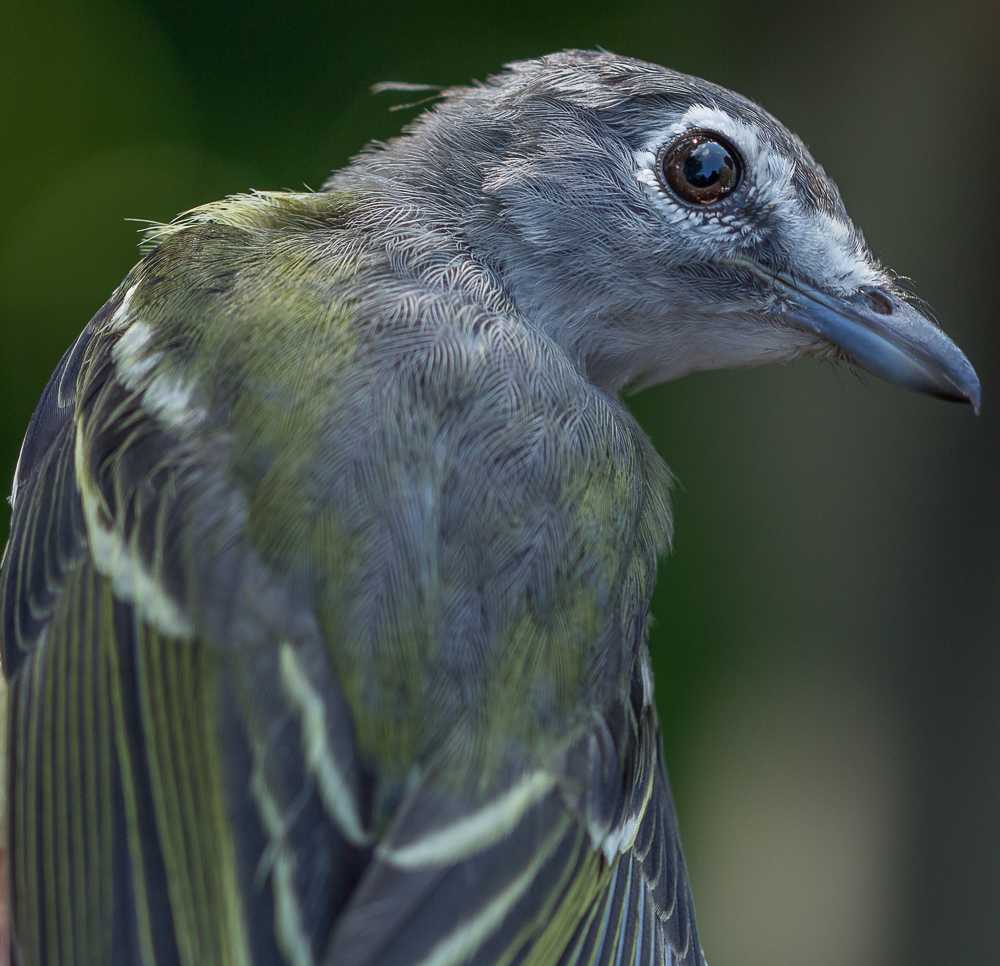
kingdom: Animalia
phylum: Chordata
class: Aves
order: Passeriformes
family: Vireonidae
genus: Vireo
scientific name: Vireo solitarius
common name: Blue-headed vireo
